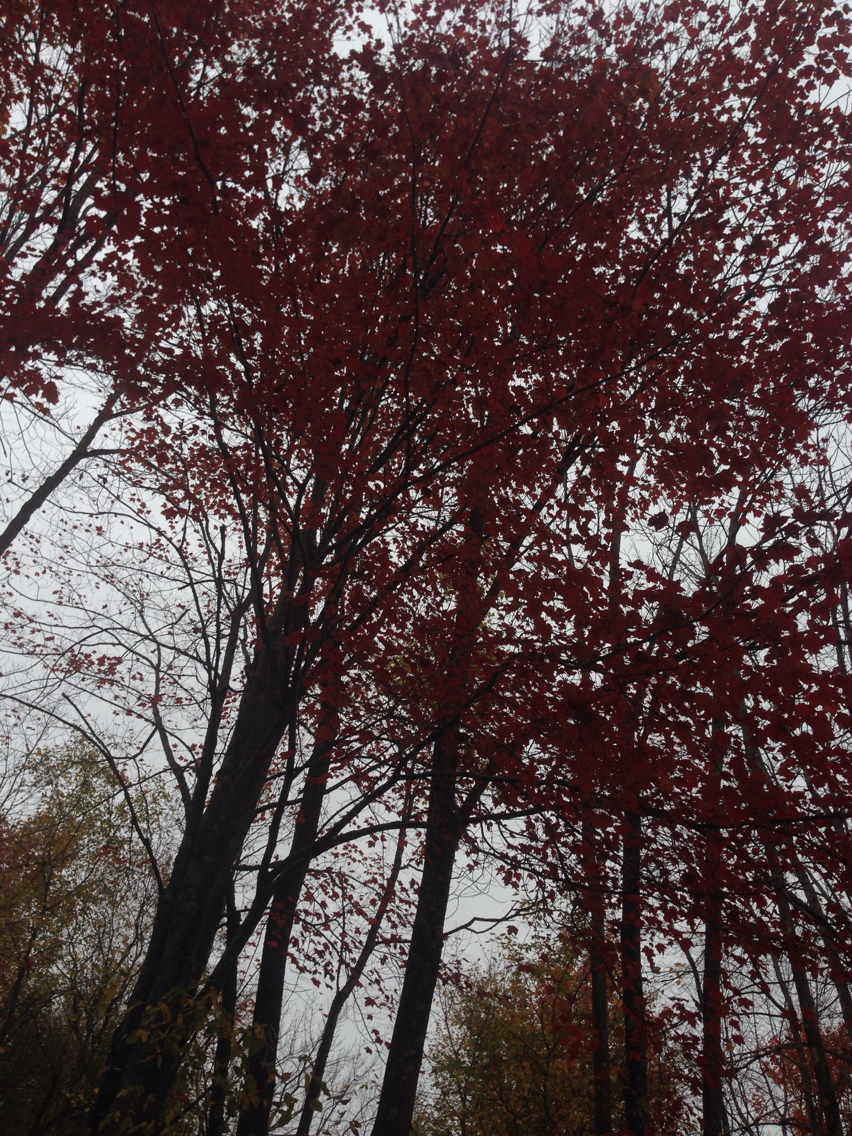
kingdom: Plantae
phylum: Tracheophyta
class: Magnoliopsida
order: Sapindales
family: Sapindaceae
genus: Acer
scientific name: Acer rubrum
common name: Red maple
